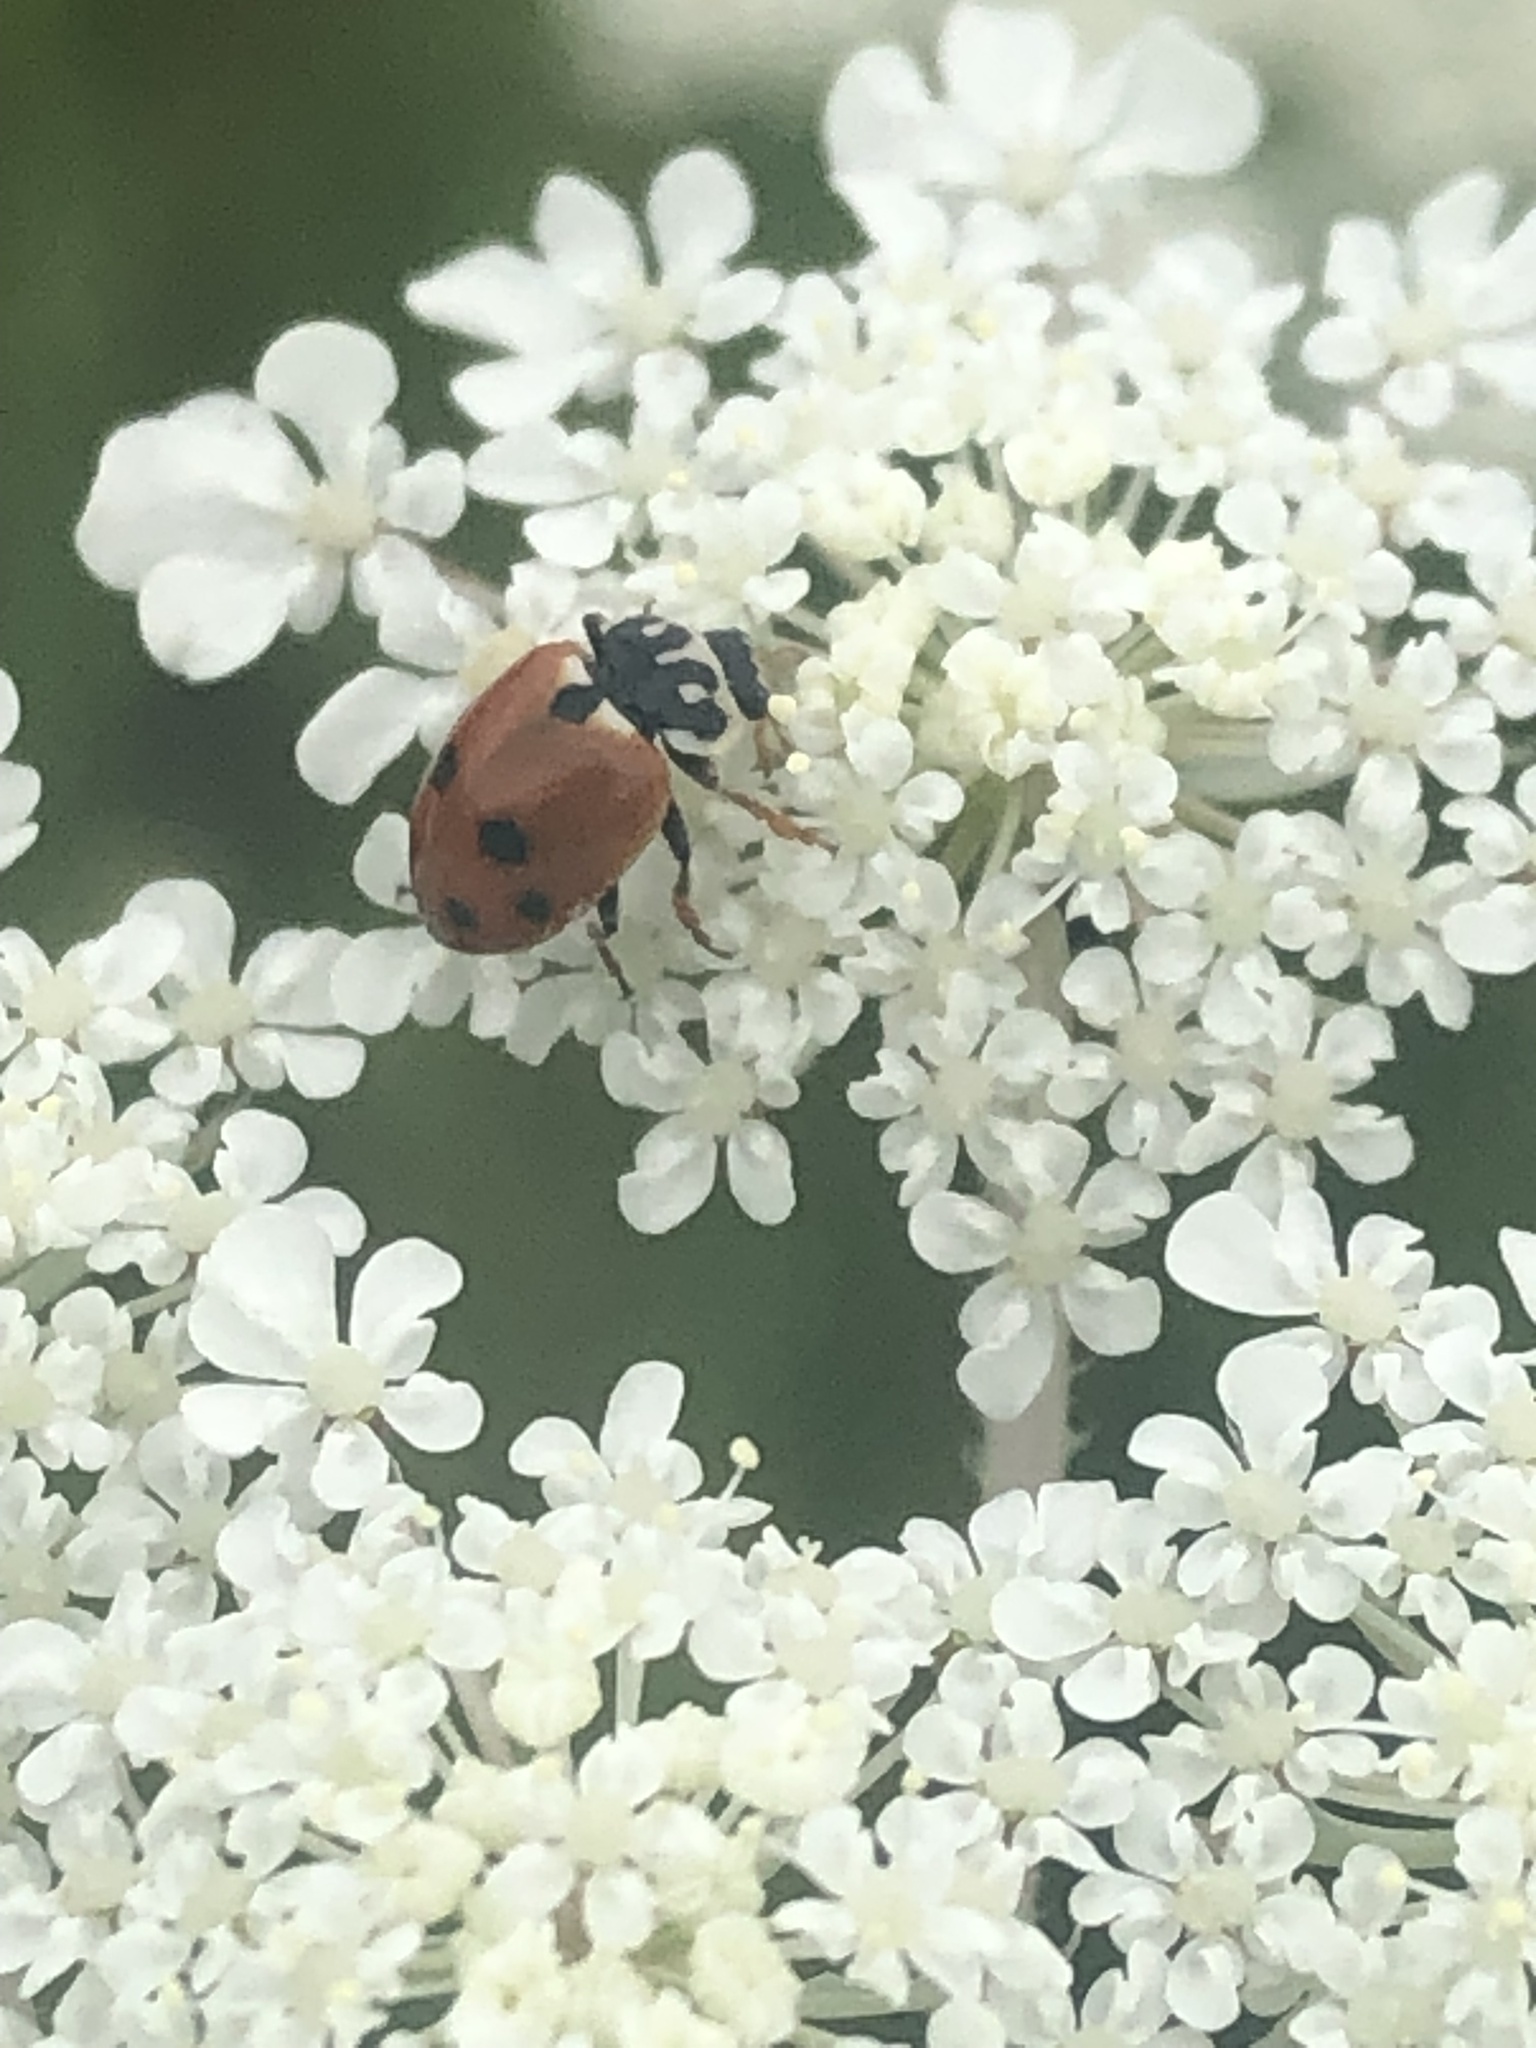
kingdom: Animalia
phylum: Arthropoda
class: Insecta
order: Coleoptera
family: Coccinellidae
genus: Hippodamia
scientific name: Hippodamia variegata
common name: Ladybird beetle
